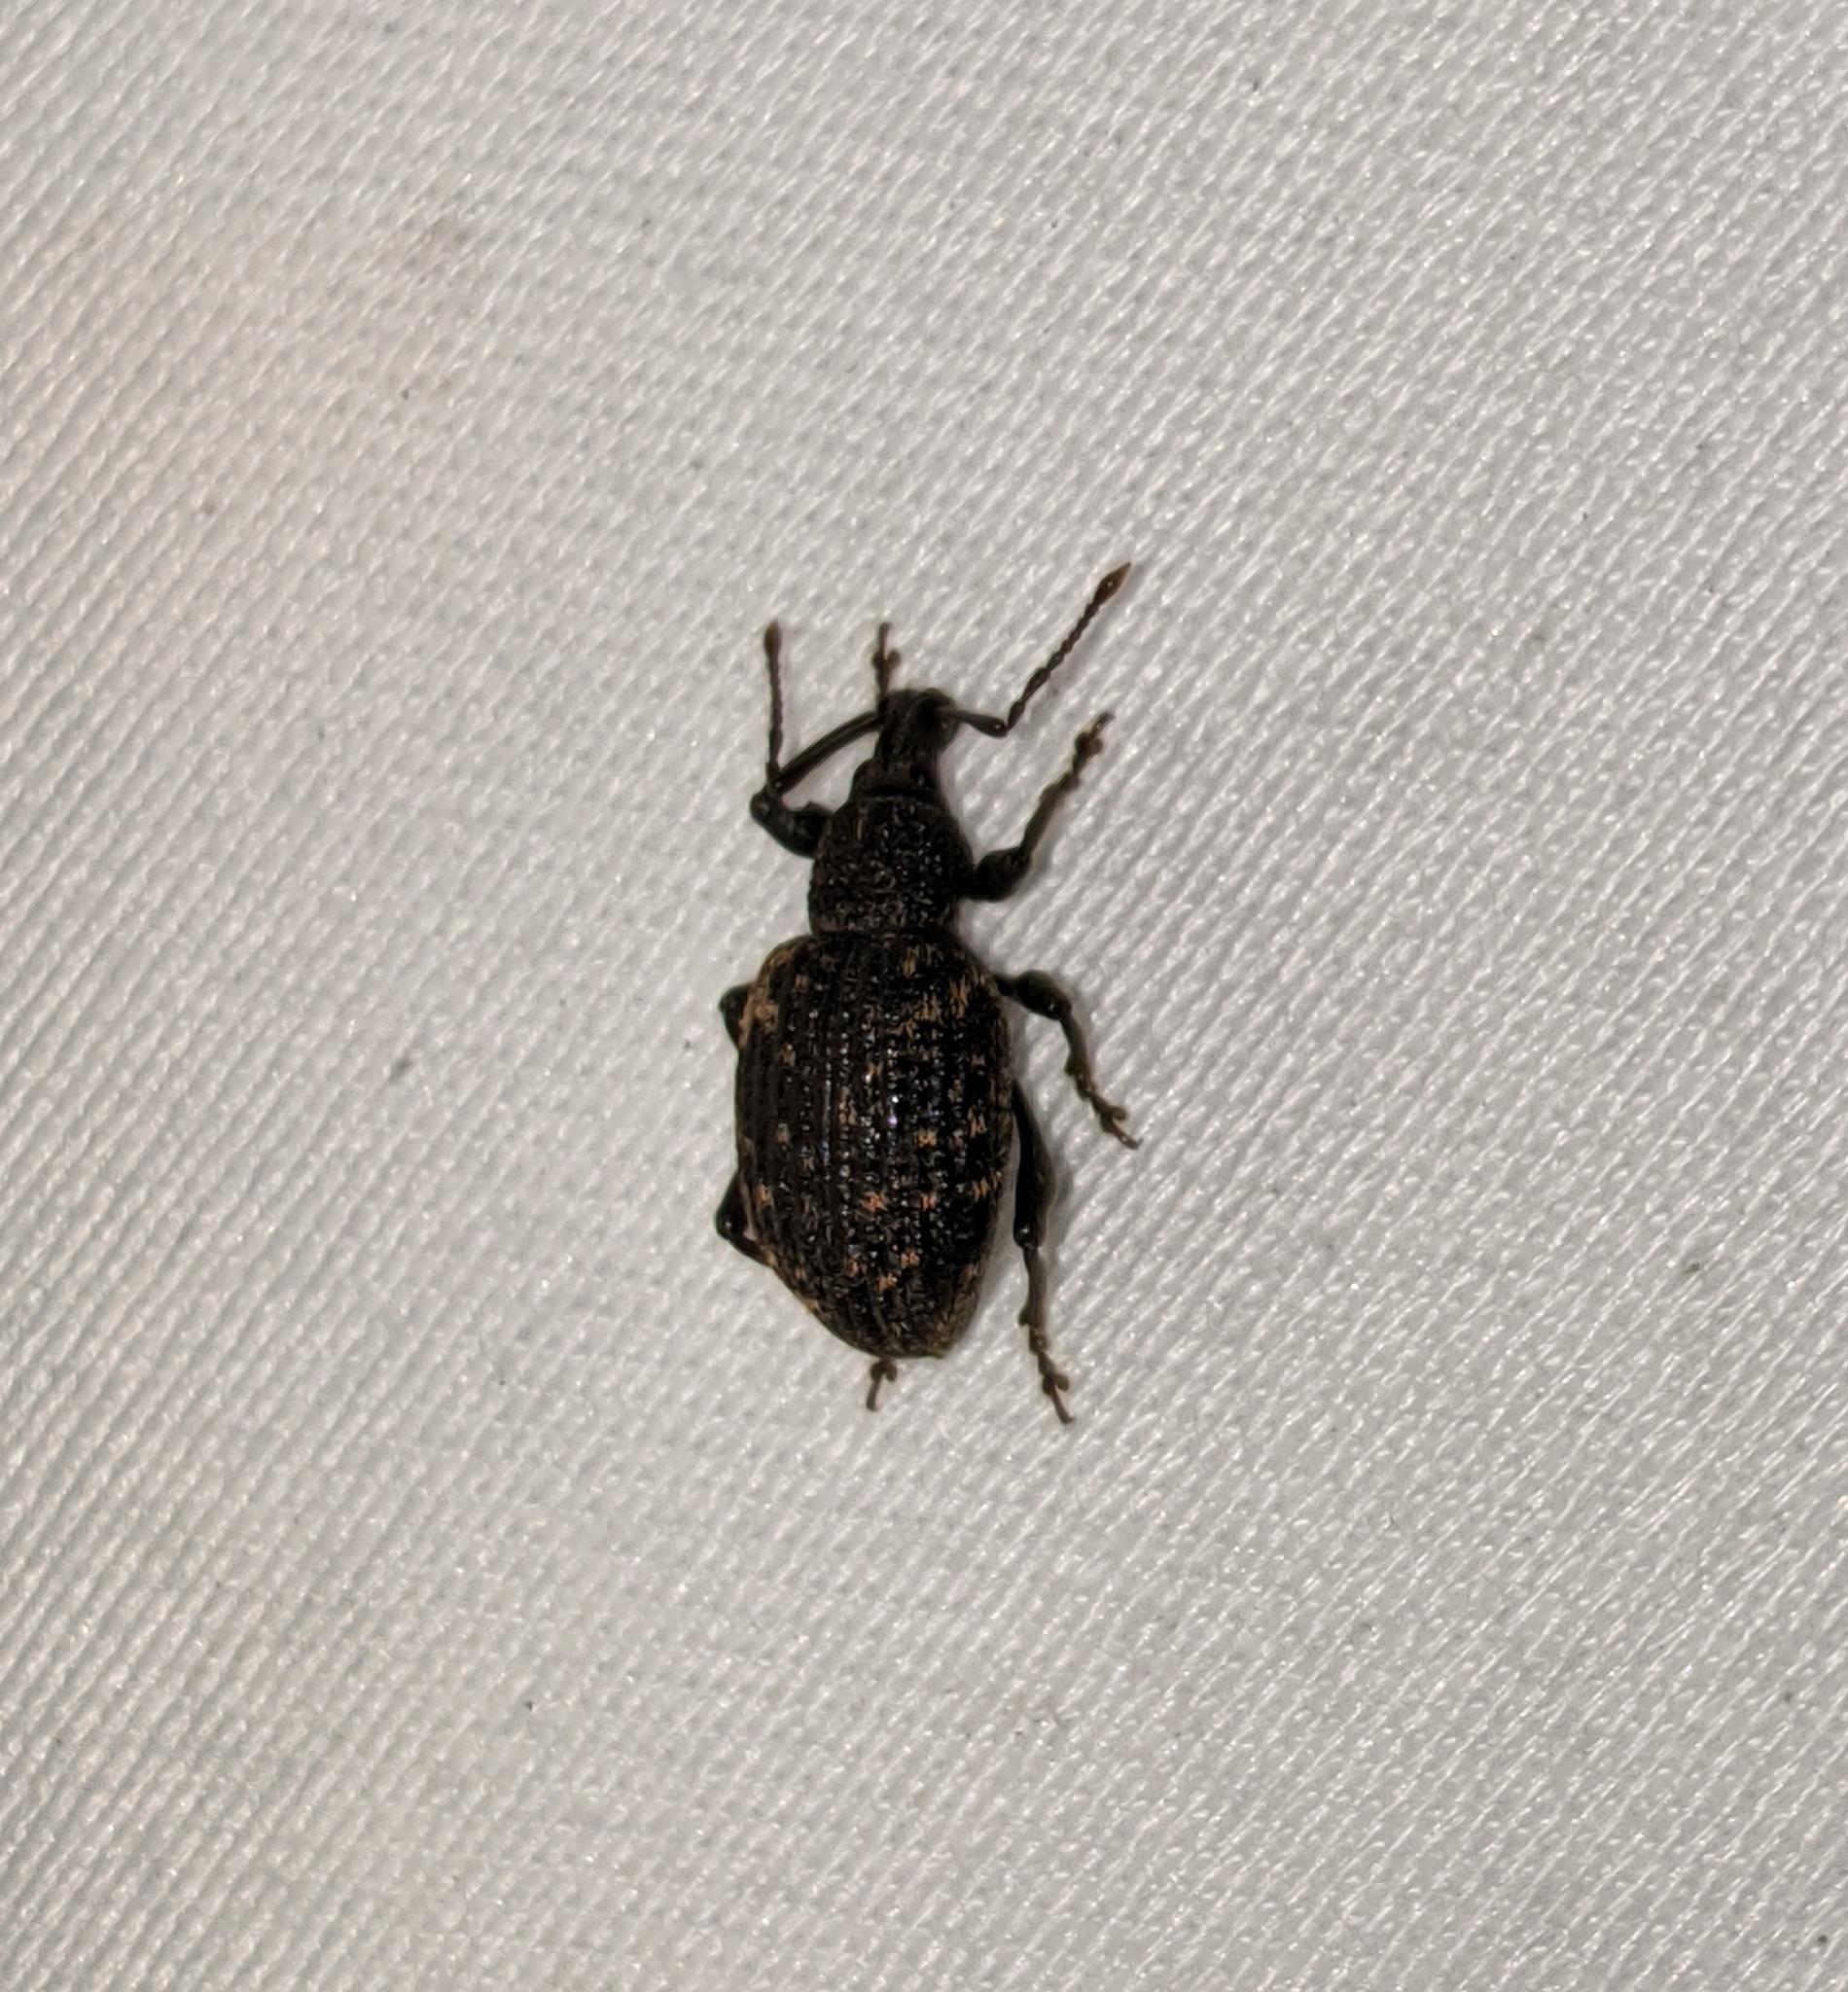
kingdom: Animalia
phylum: Arthropoda
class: Insecta
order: Coleoptera
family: Curculionidae
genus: Otiorhynchus
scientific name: Otiorhynchus sulcatus
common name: Black vine weevil
